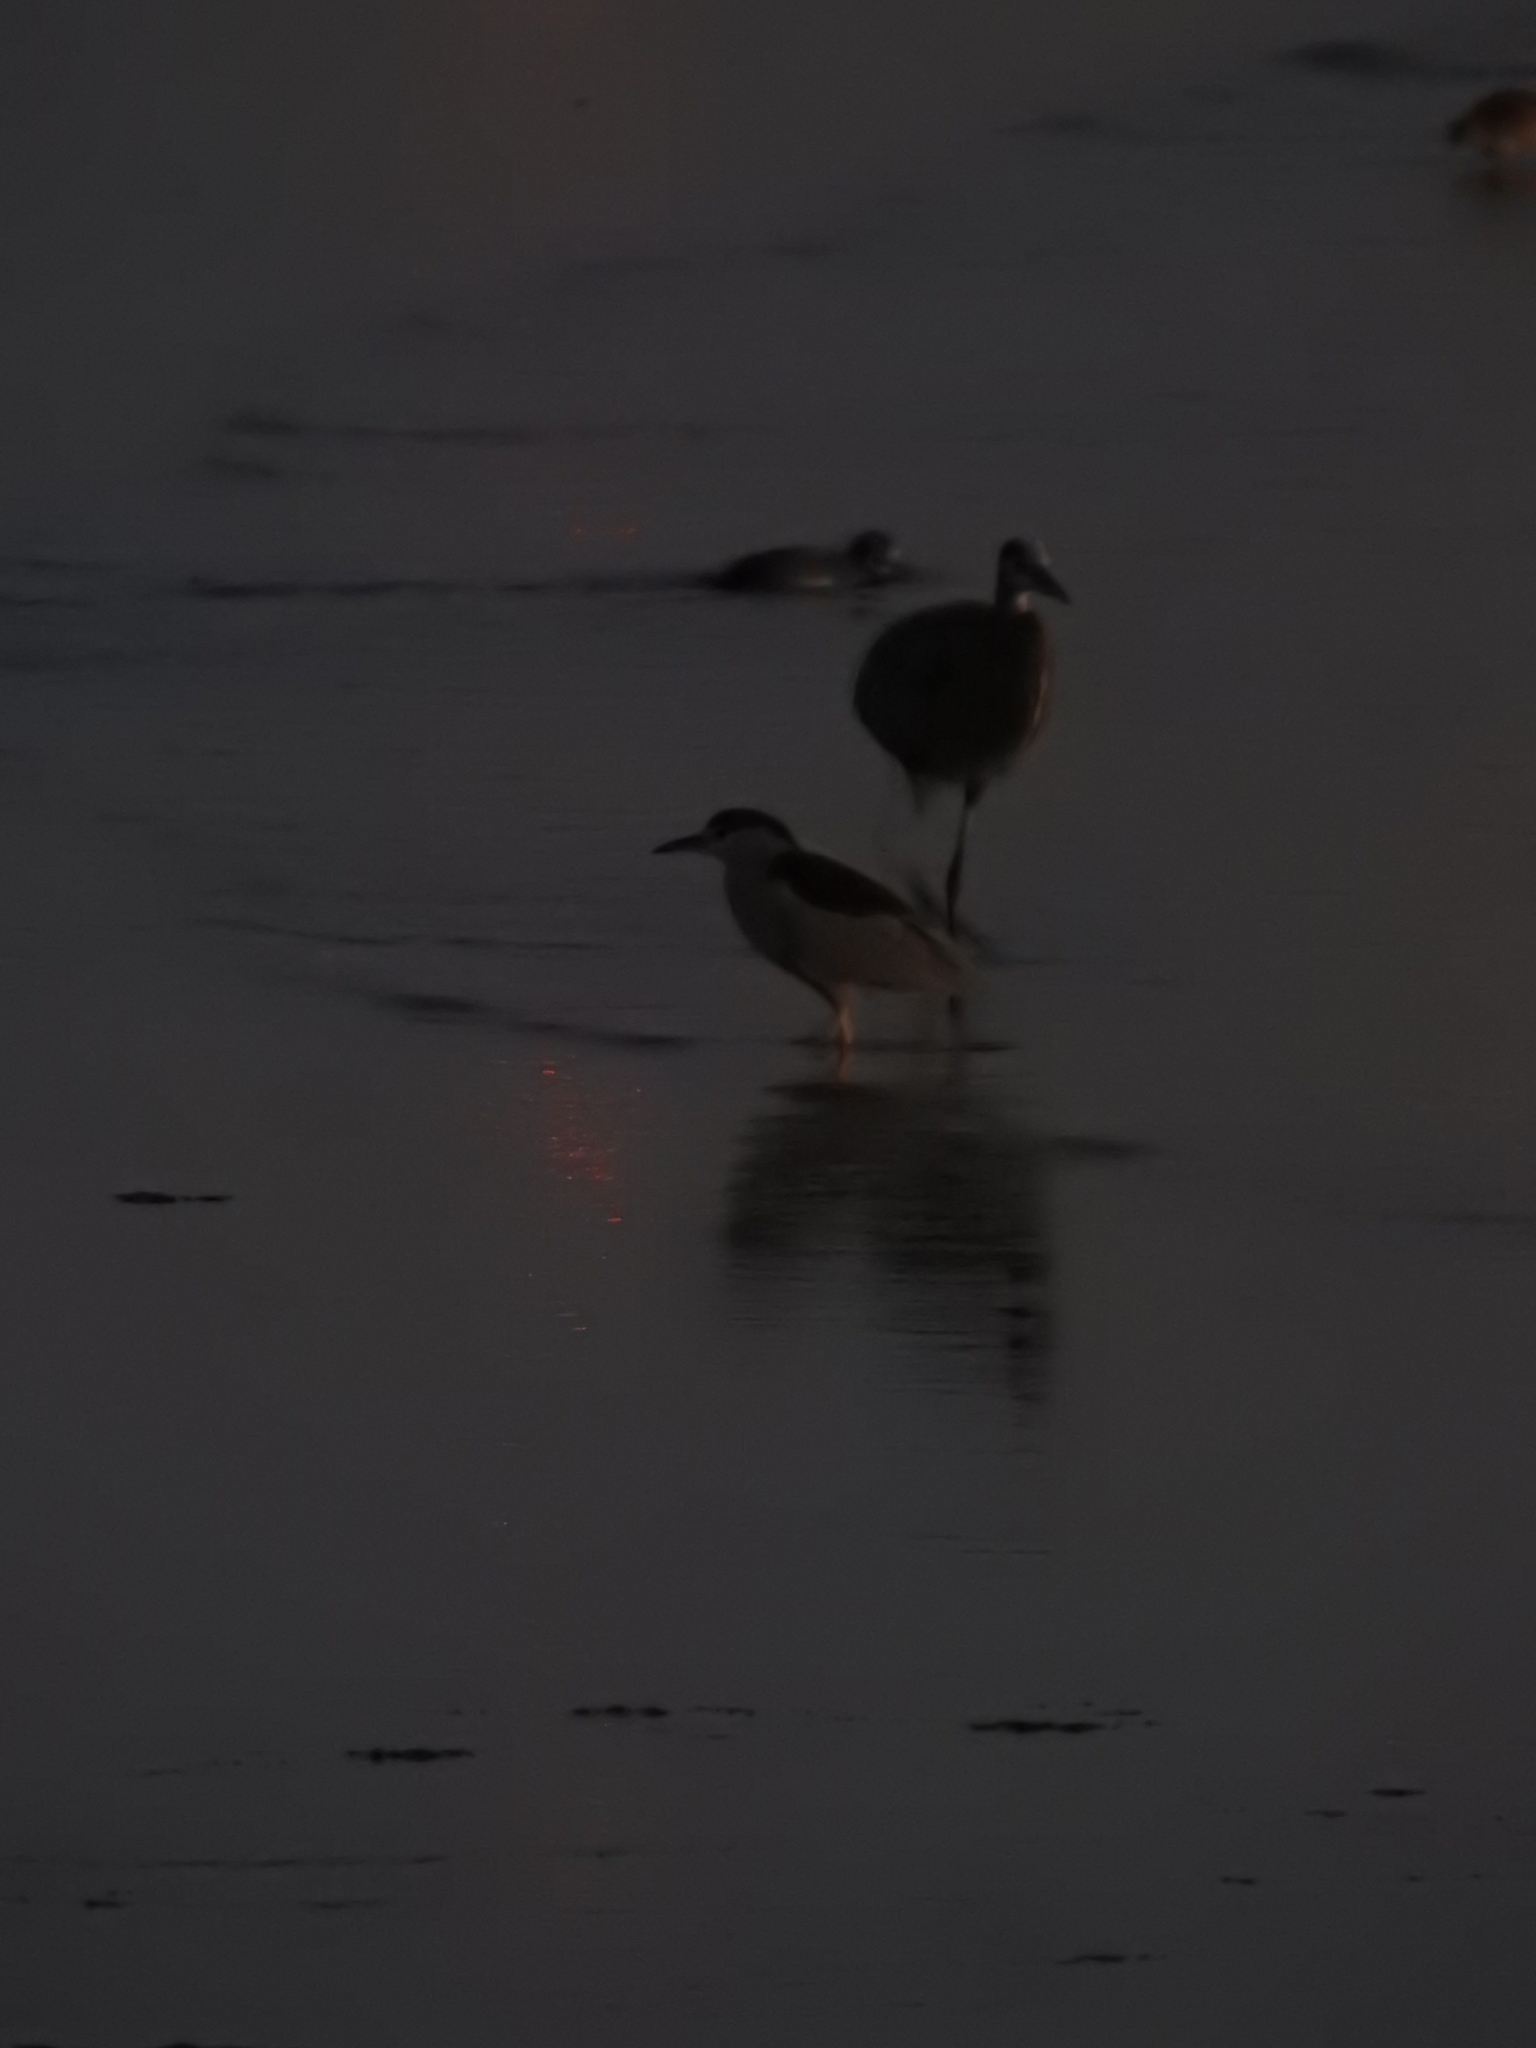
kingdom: Animalia
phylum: Chordata
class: Aves
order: Pelecaniformes
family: Ardeidae
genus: Nycticorax
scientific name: Nycticorax nycticorax
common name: Black-crowned night heron
